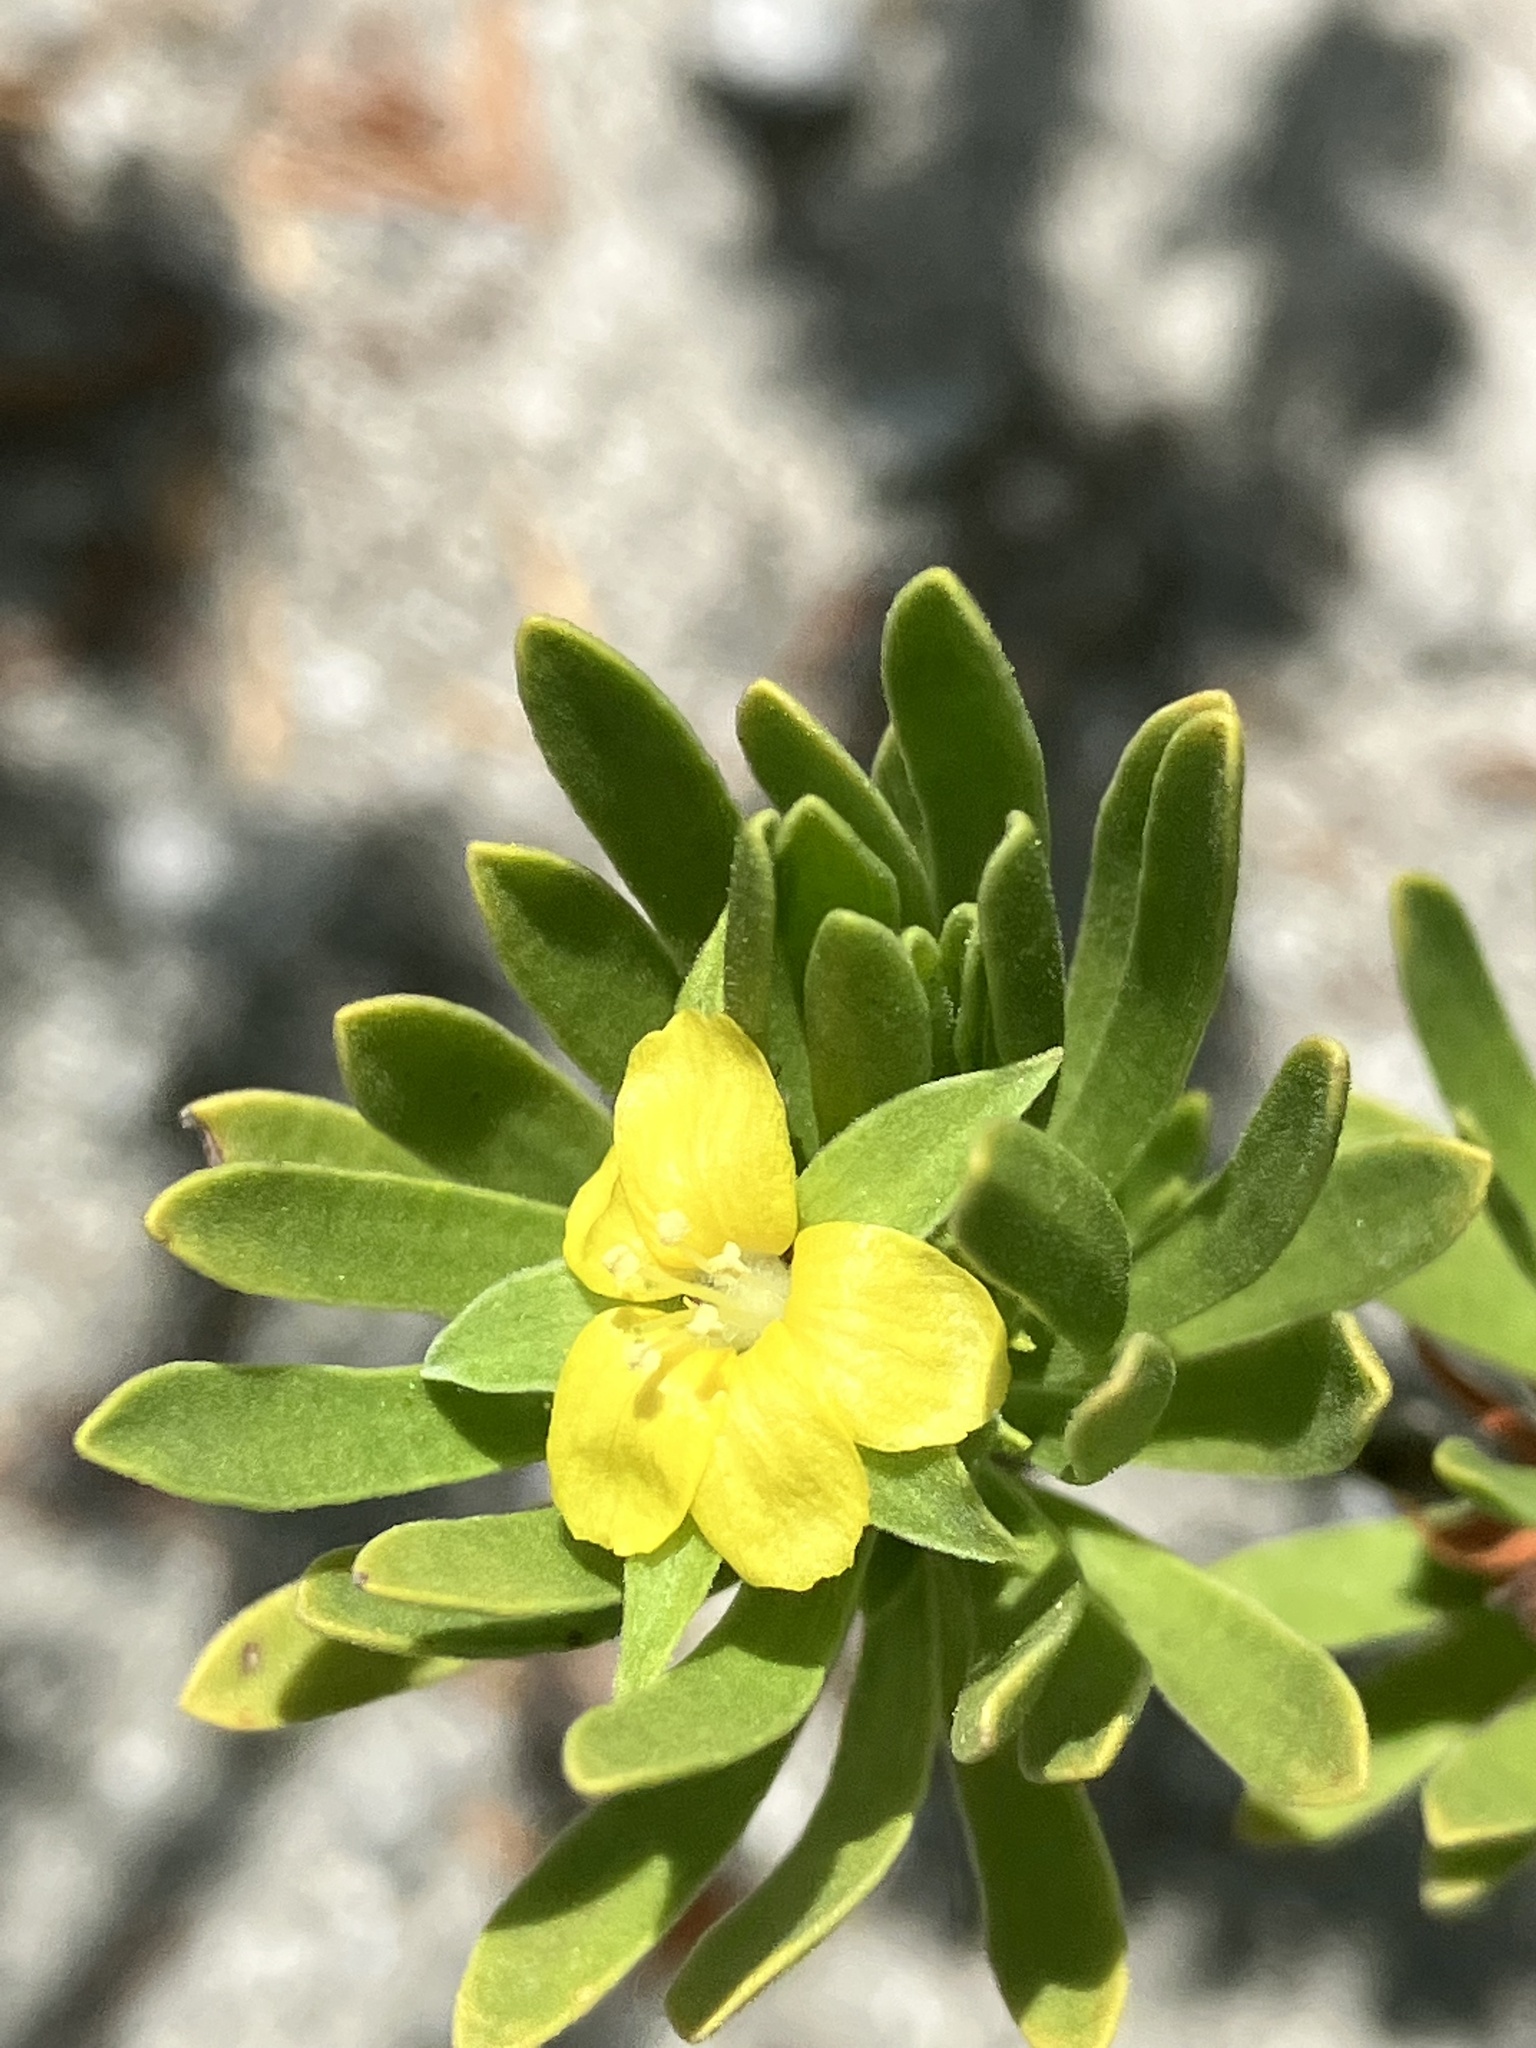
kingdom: Plantae
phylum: Tracheophyta
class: Magnoliopsida
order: Fabales
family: Surianaceae
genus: Suriana
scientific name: Suriana maritima
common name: Bay-cedar
